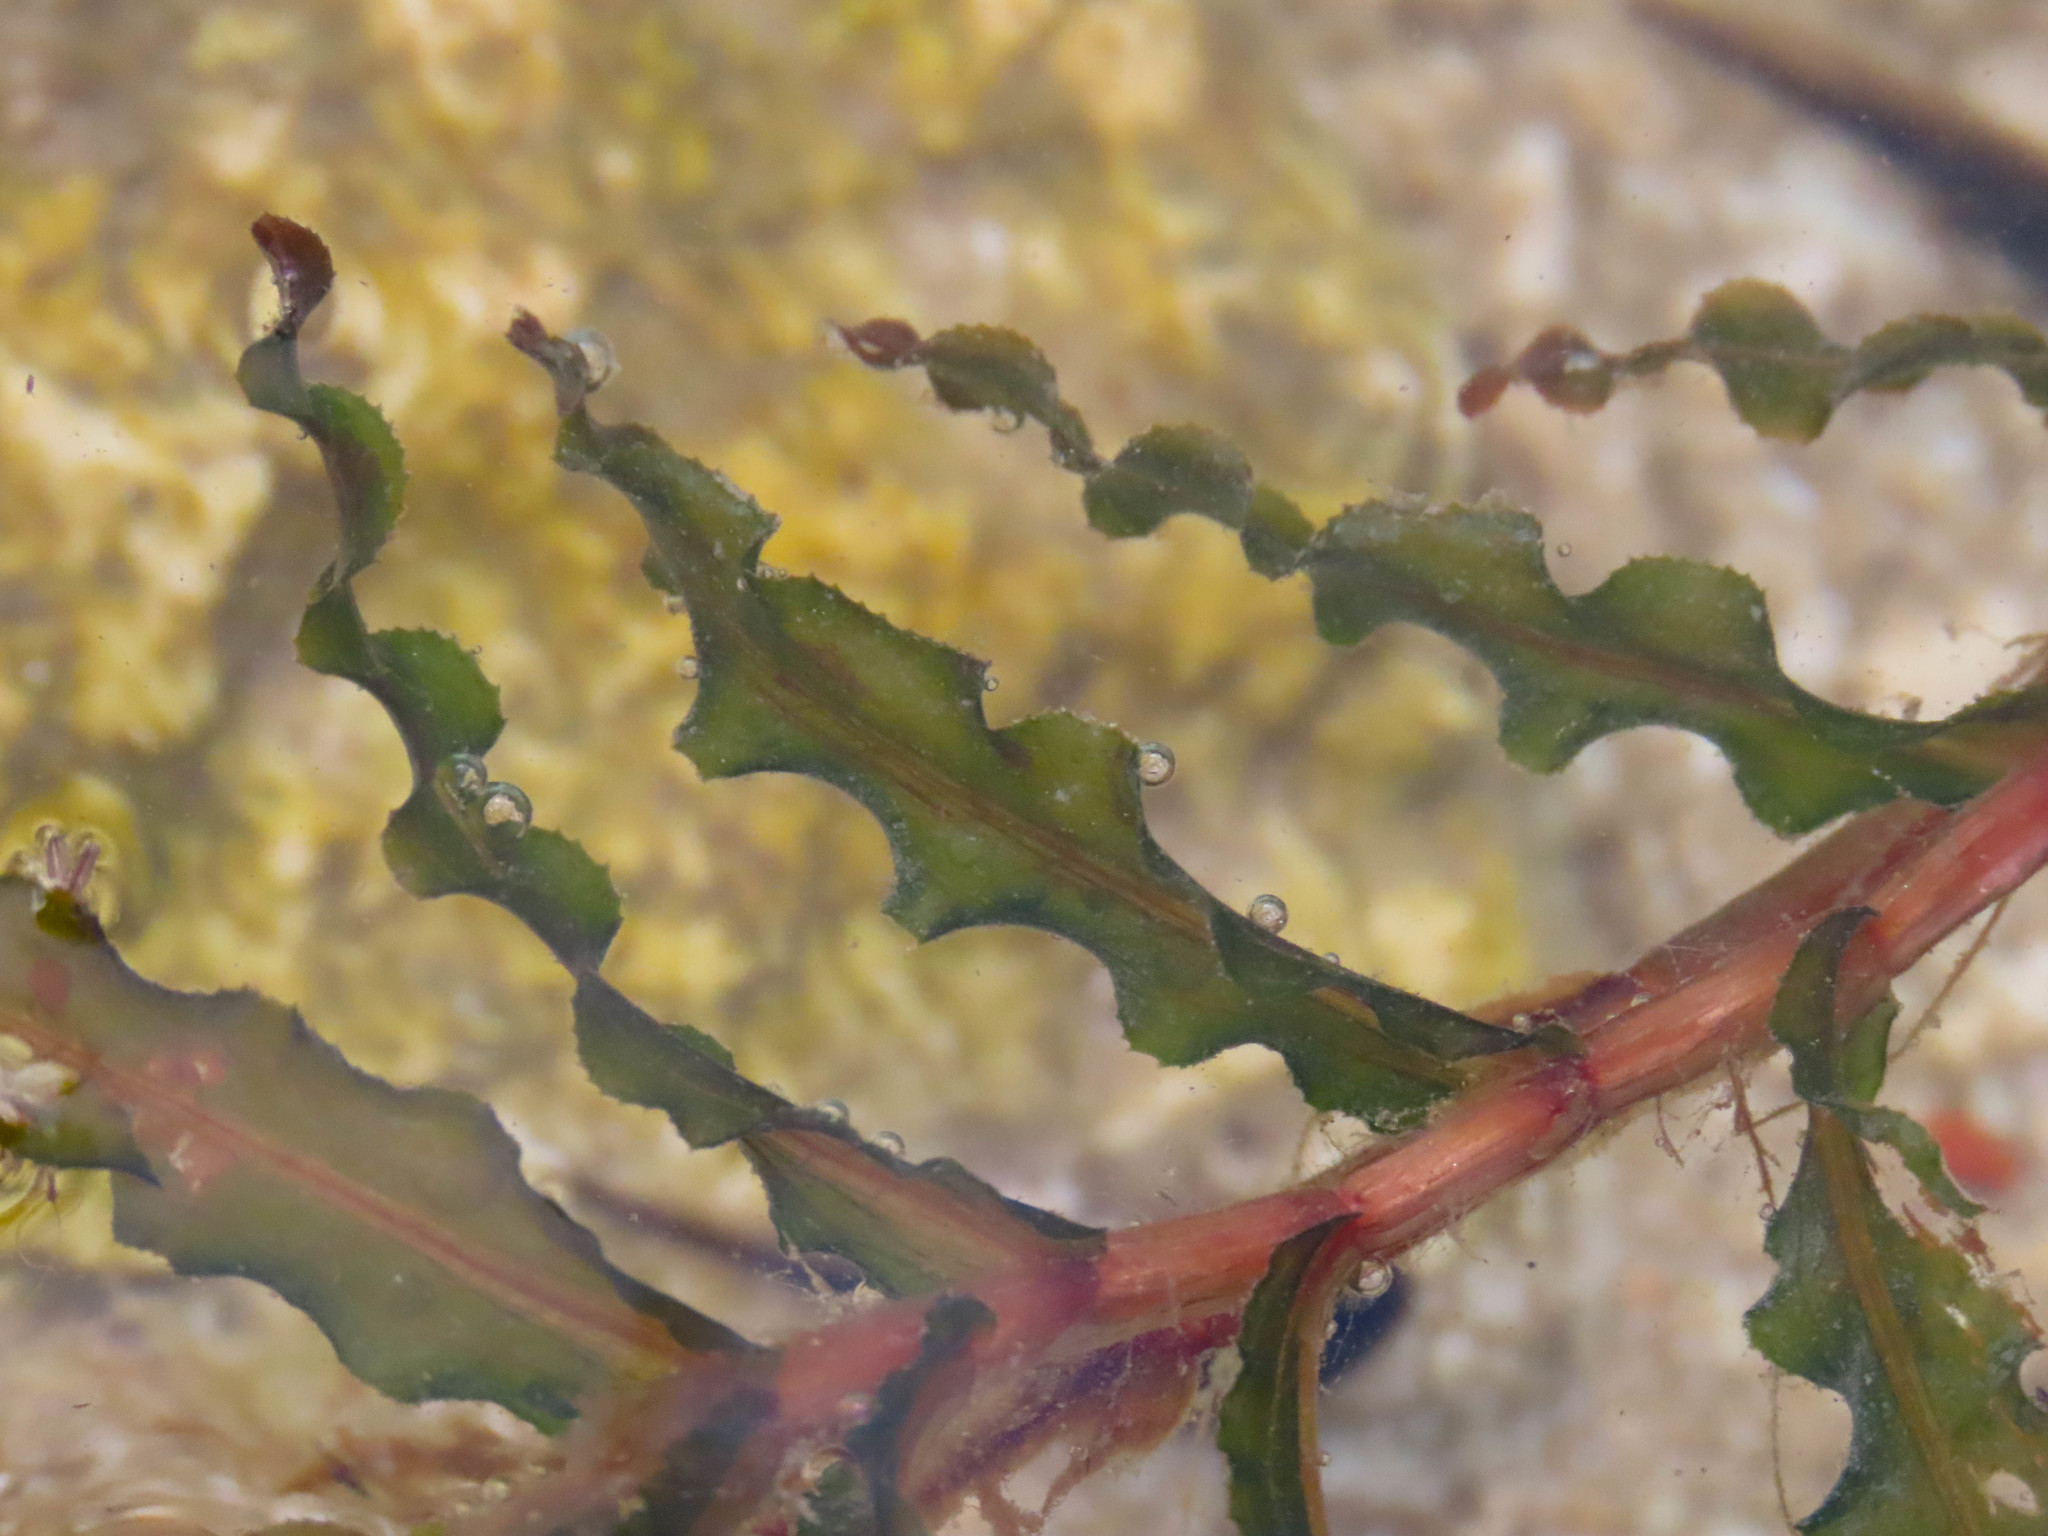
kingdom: Plantae
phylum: Tracheophyta
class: Liliopsida
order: Alismatales
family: Potamogetonaceae
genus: Potamogeton
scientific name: Potamogeton crispus
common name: Curled pondweed
